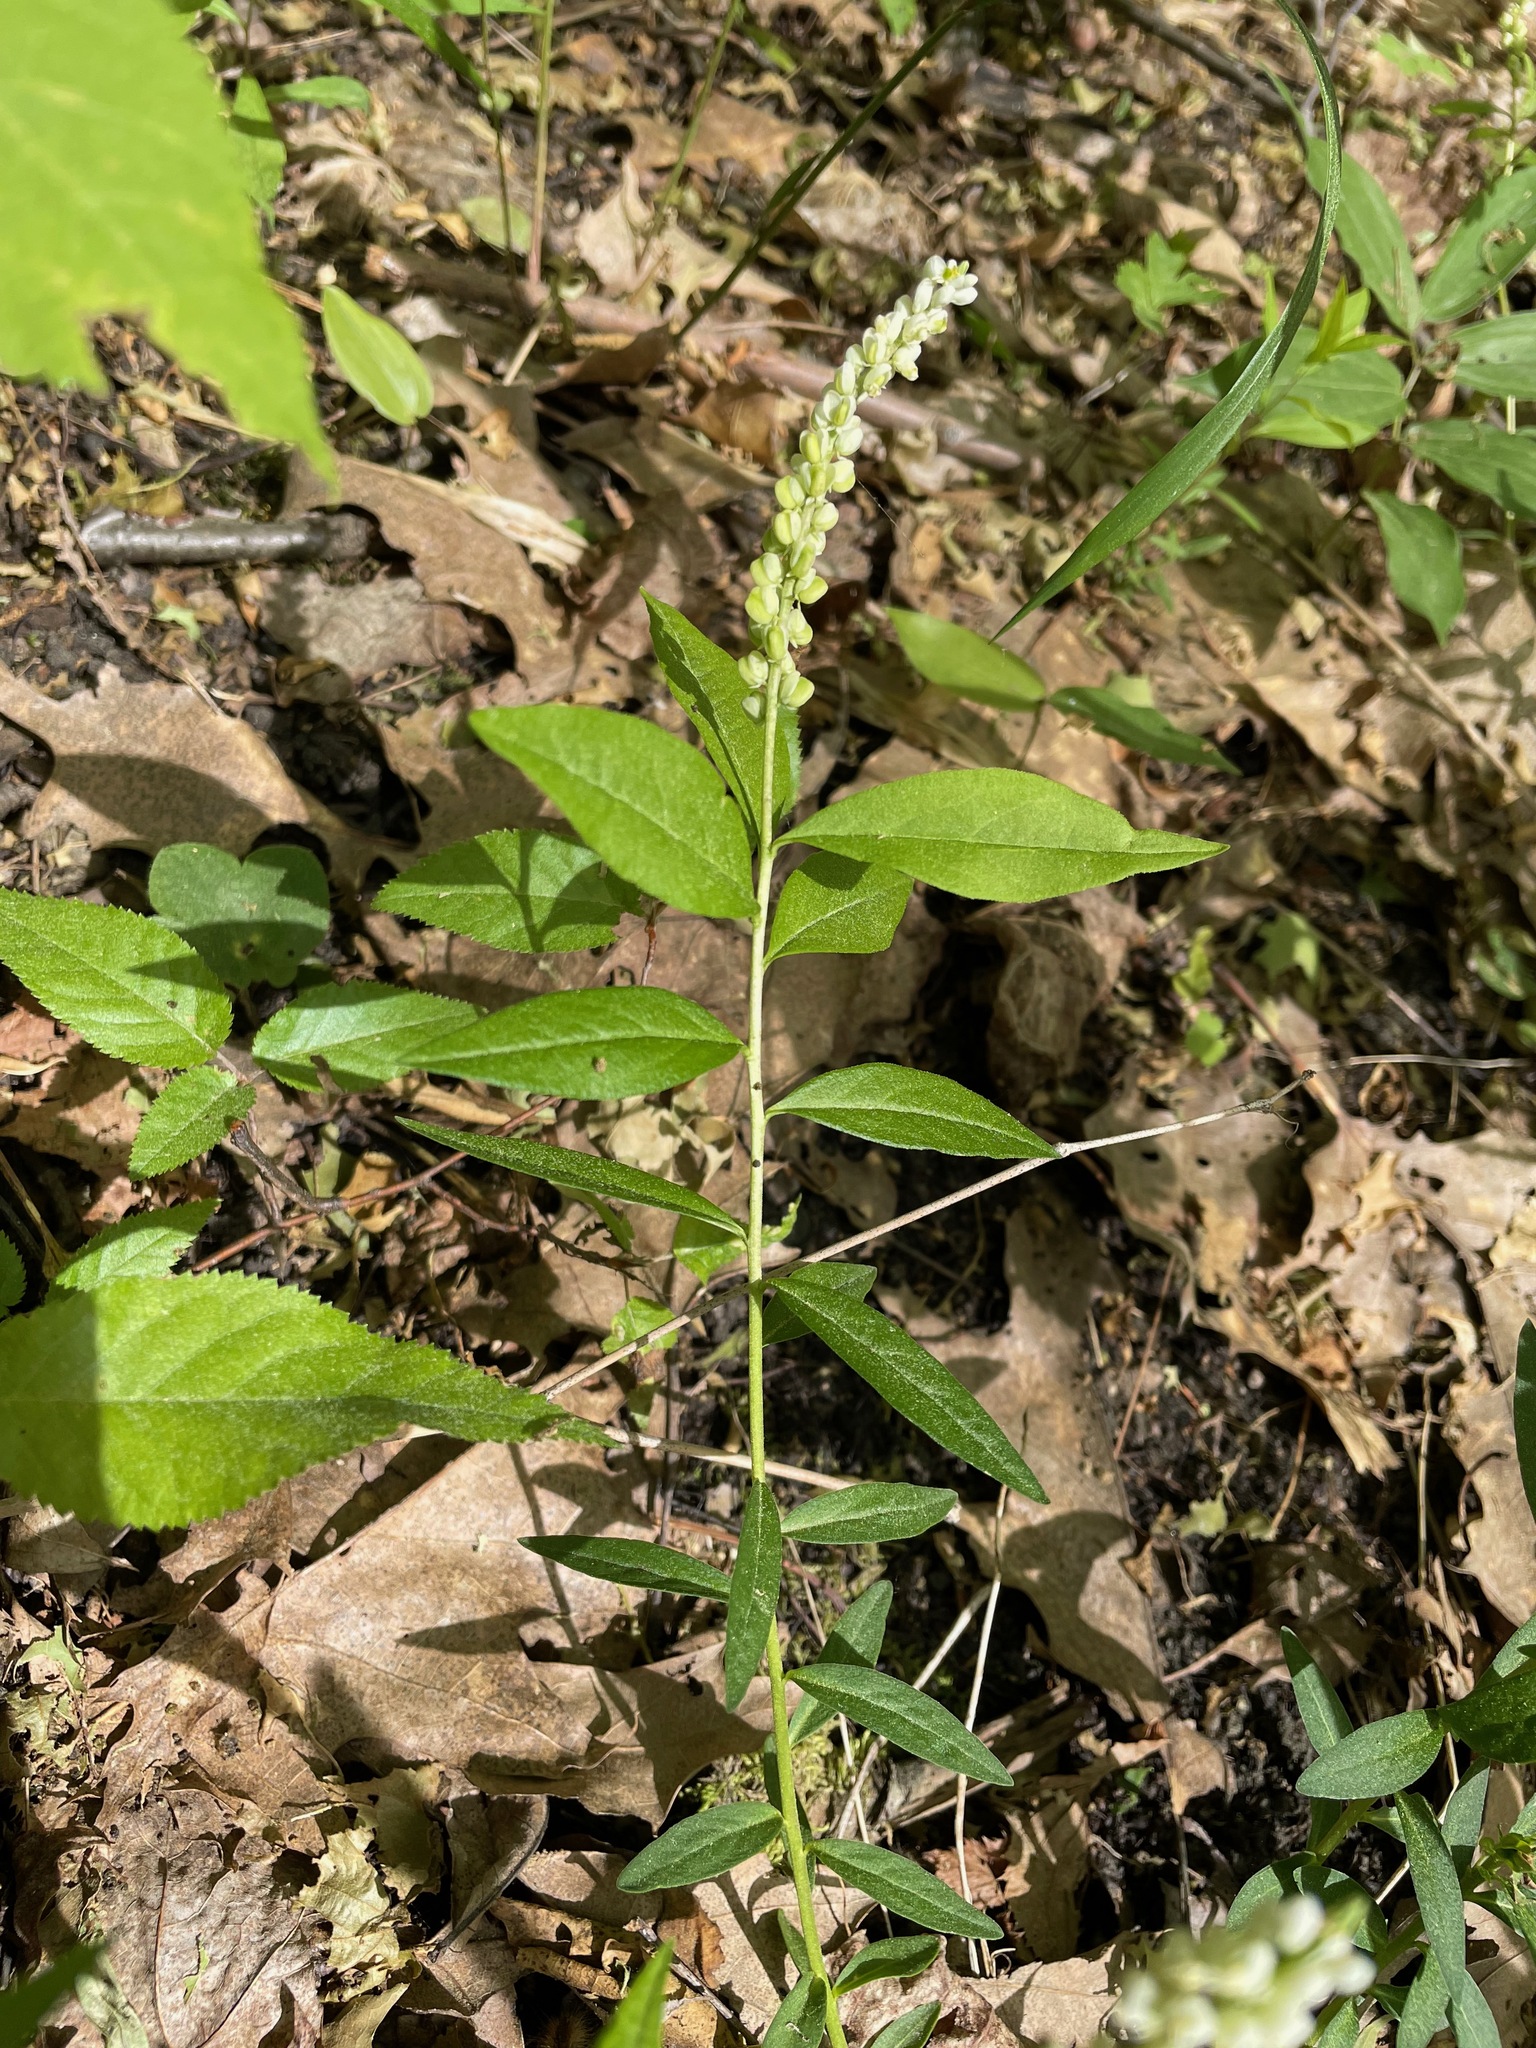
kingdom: Plantae
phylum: Tracheophyta
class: Magnoliopsida
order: Fabales
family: Polygalaceae
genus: Polygala
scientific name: Polygala senega
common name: Seneca snakeroot
